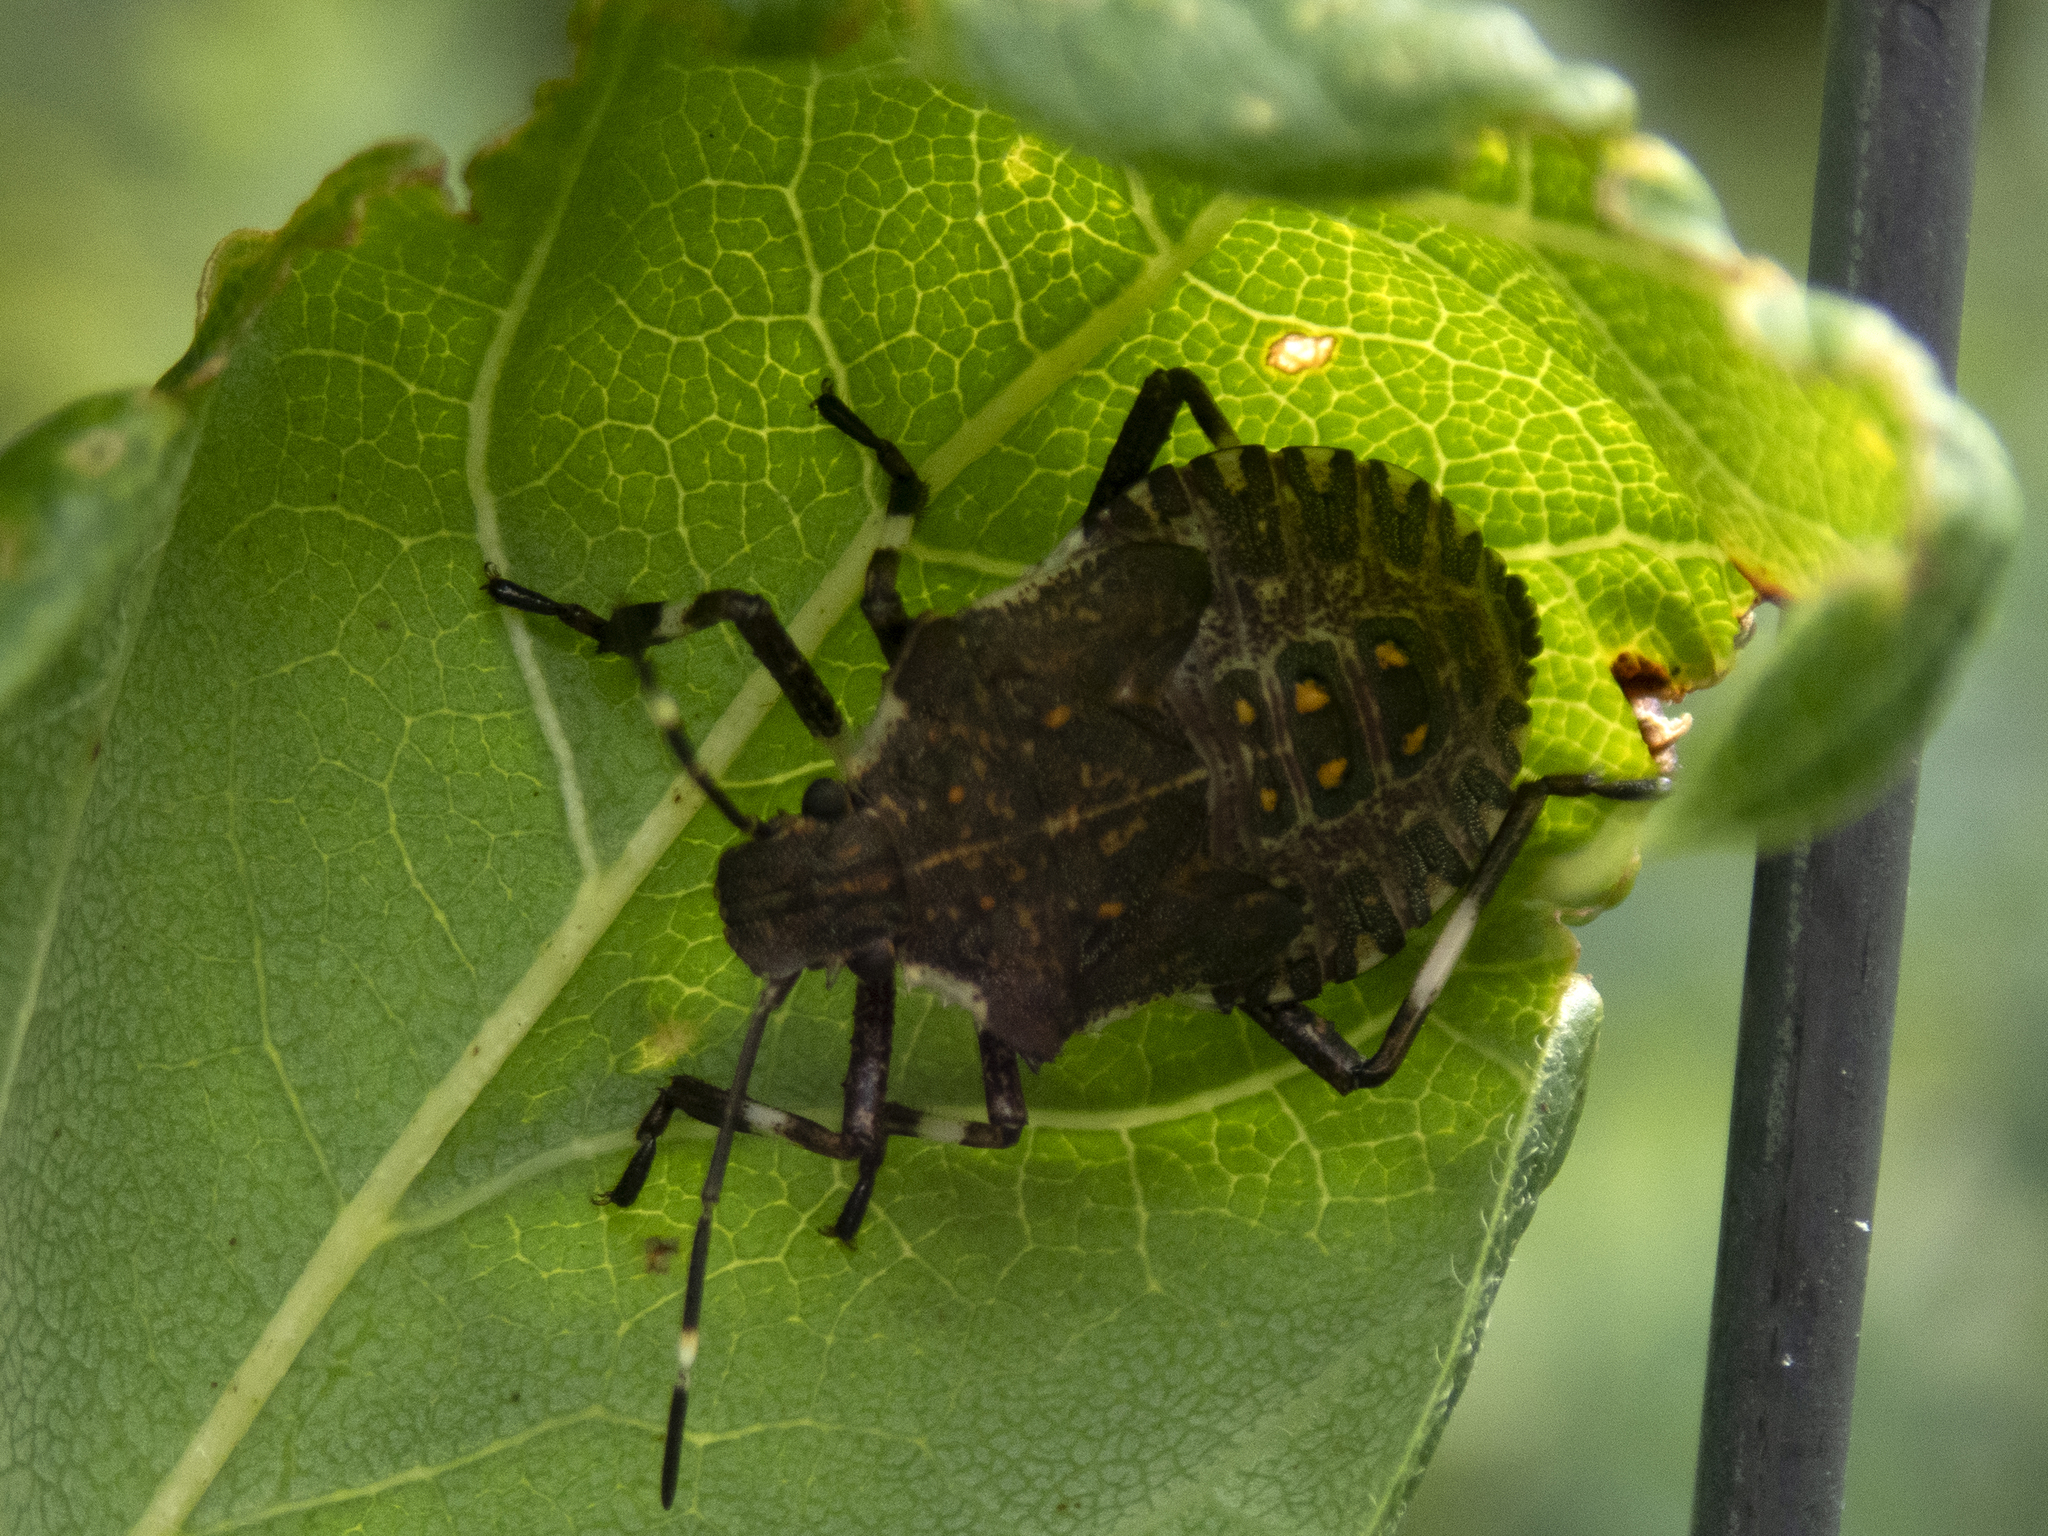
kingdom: Animalia
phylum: Arthropoda
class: Insecta
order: Hemiptera
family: Pentatomidae
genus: Halyomorpha
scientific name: Halyomorpha halys
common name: Brown marmorated stink bug
